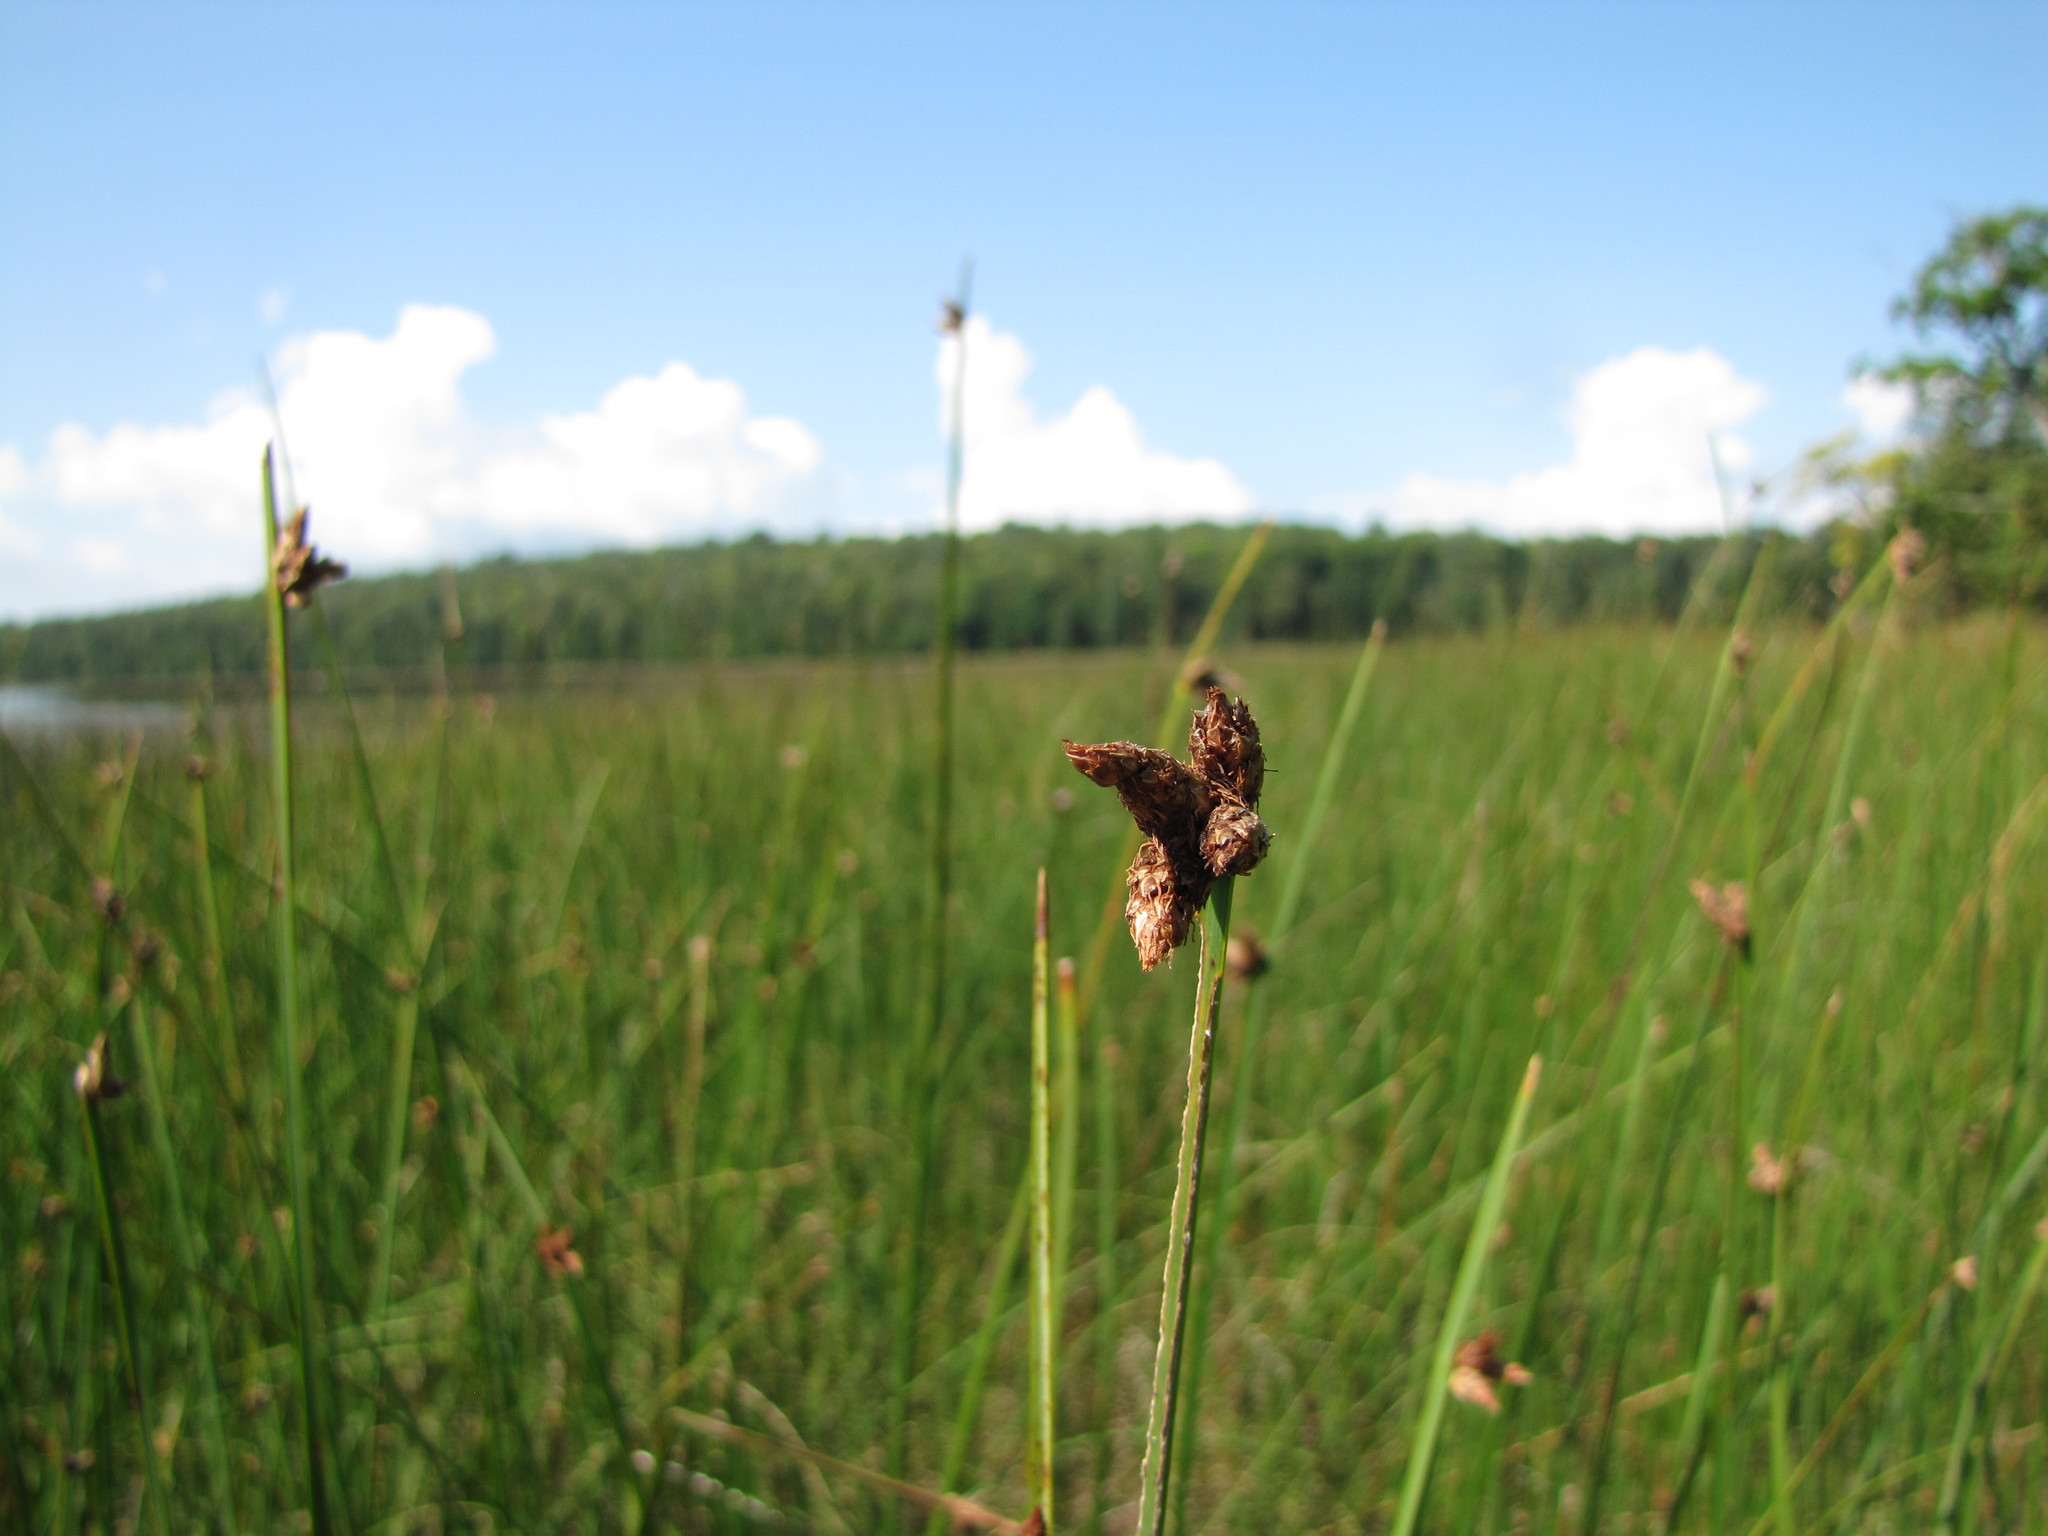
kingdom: Plantae
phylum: Tracheophyta
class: Liliopsida
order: Poales
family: Cyperaceae
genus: Schoenoplectus
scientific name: Schoenoplectus pungens
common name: Sharp club-rush
